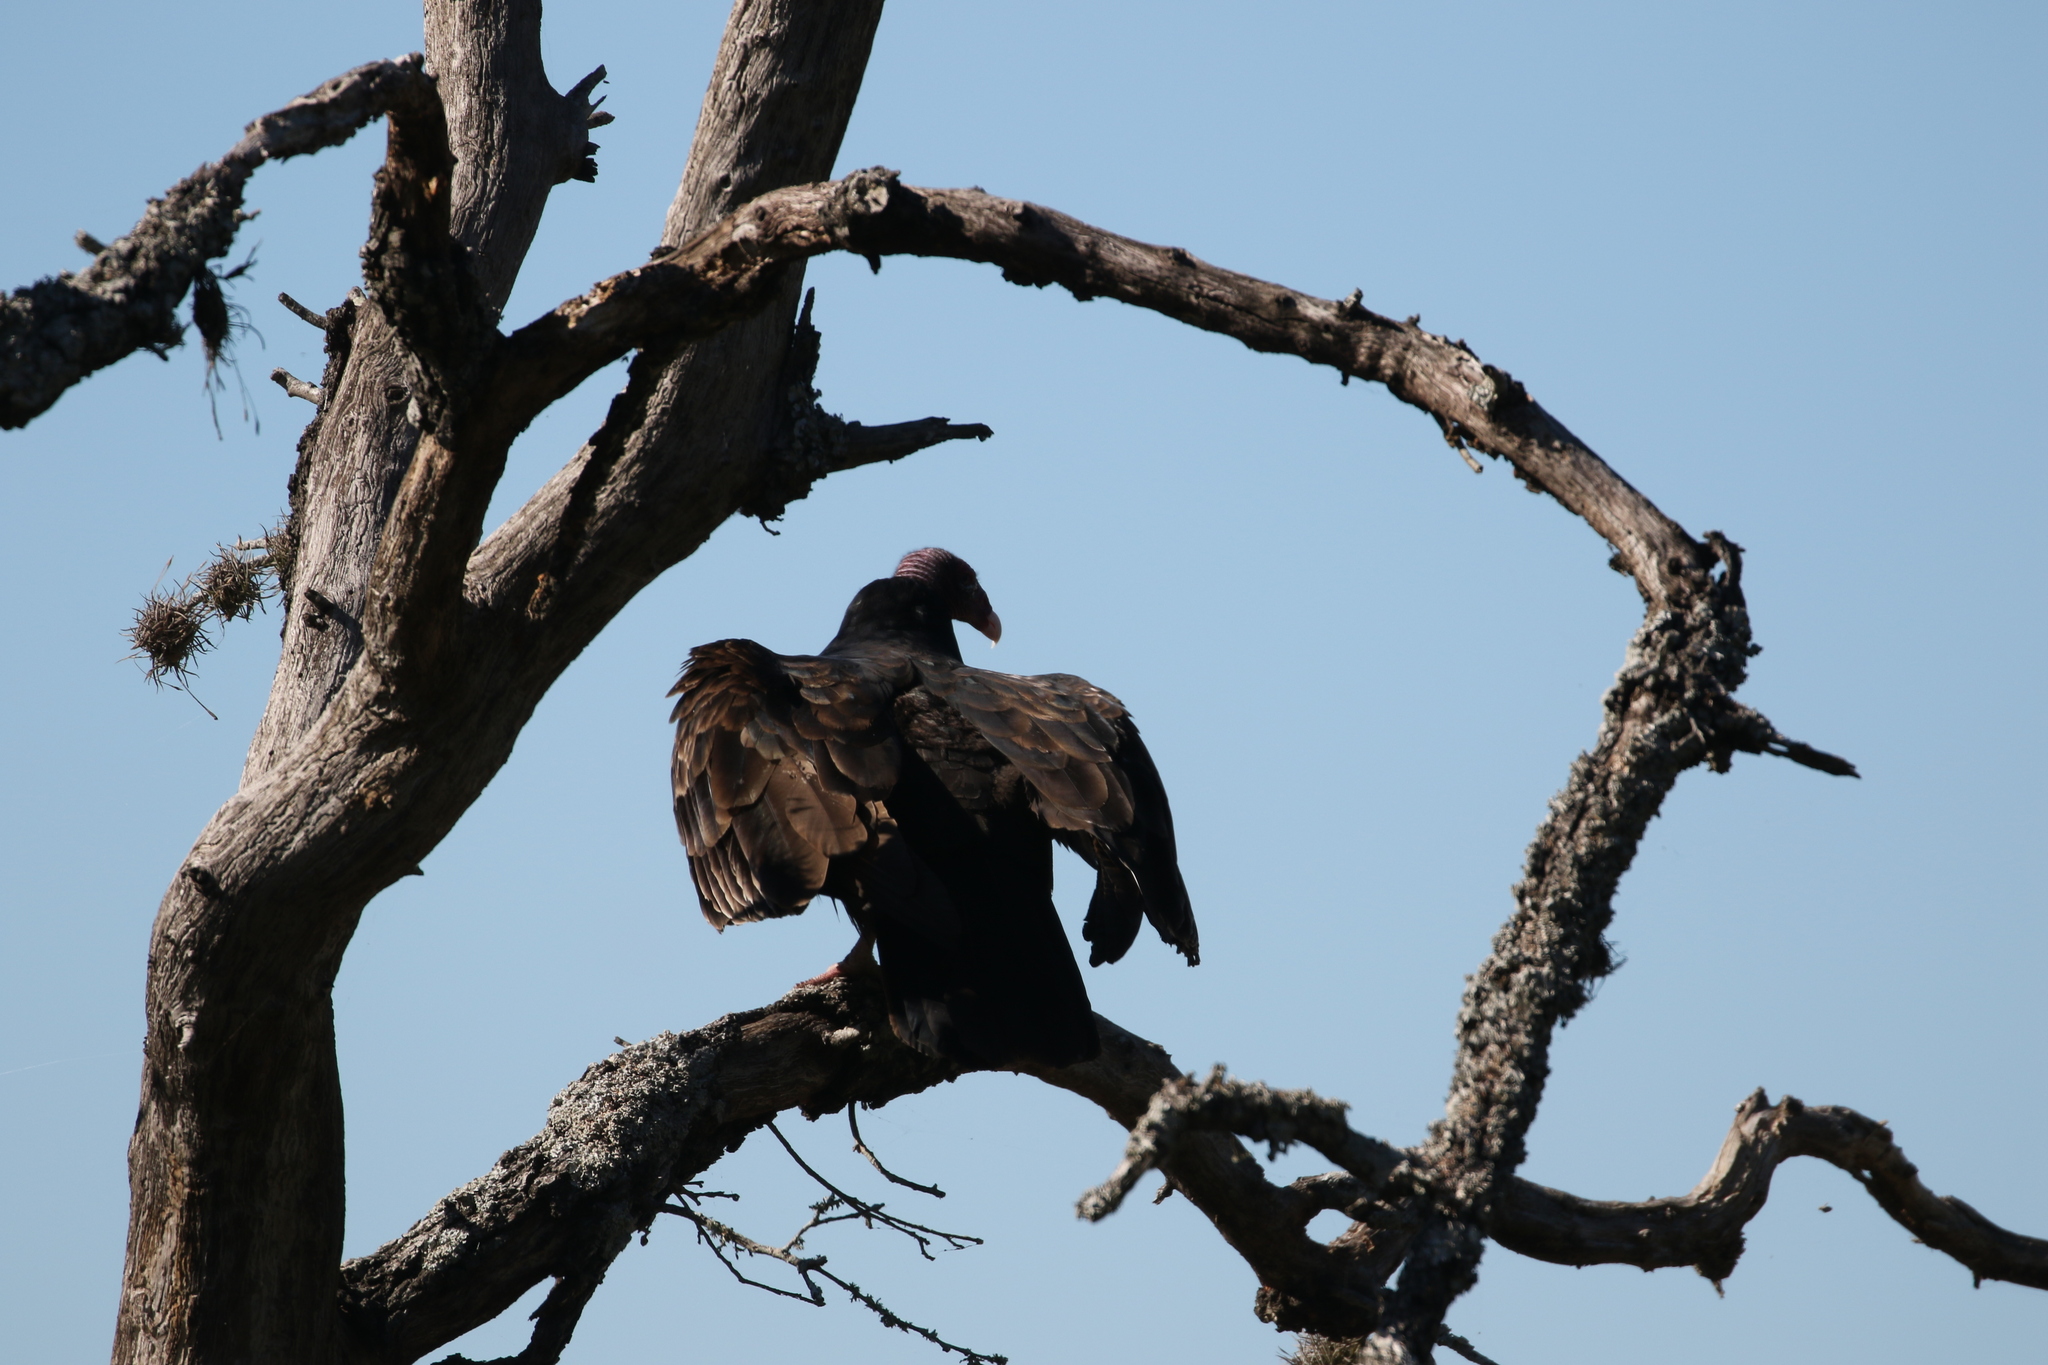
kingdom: Animalia
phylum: Chordata
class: Aves
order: Accipitriformes
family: Cathartidae
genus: Cathartes
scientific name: Cathartes aura
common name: Turkey vulture
